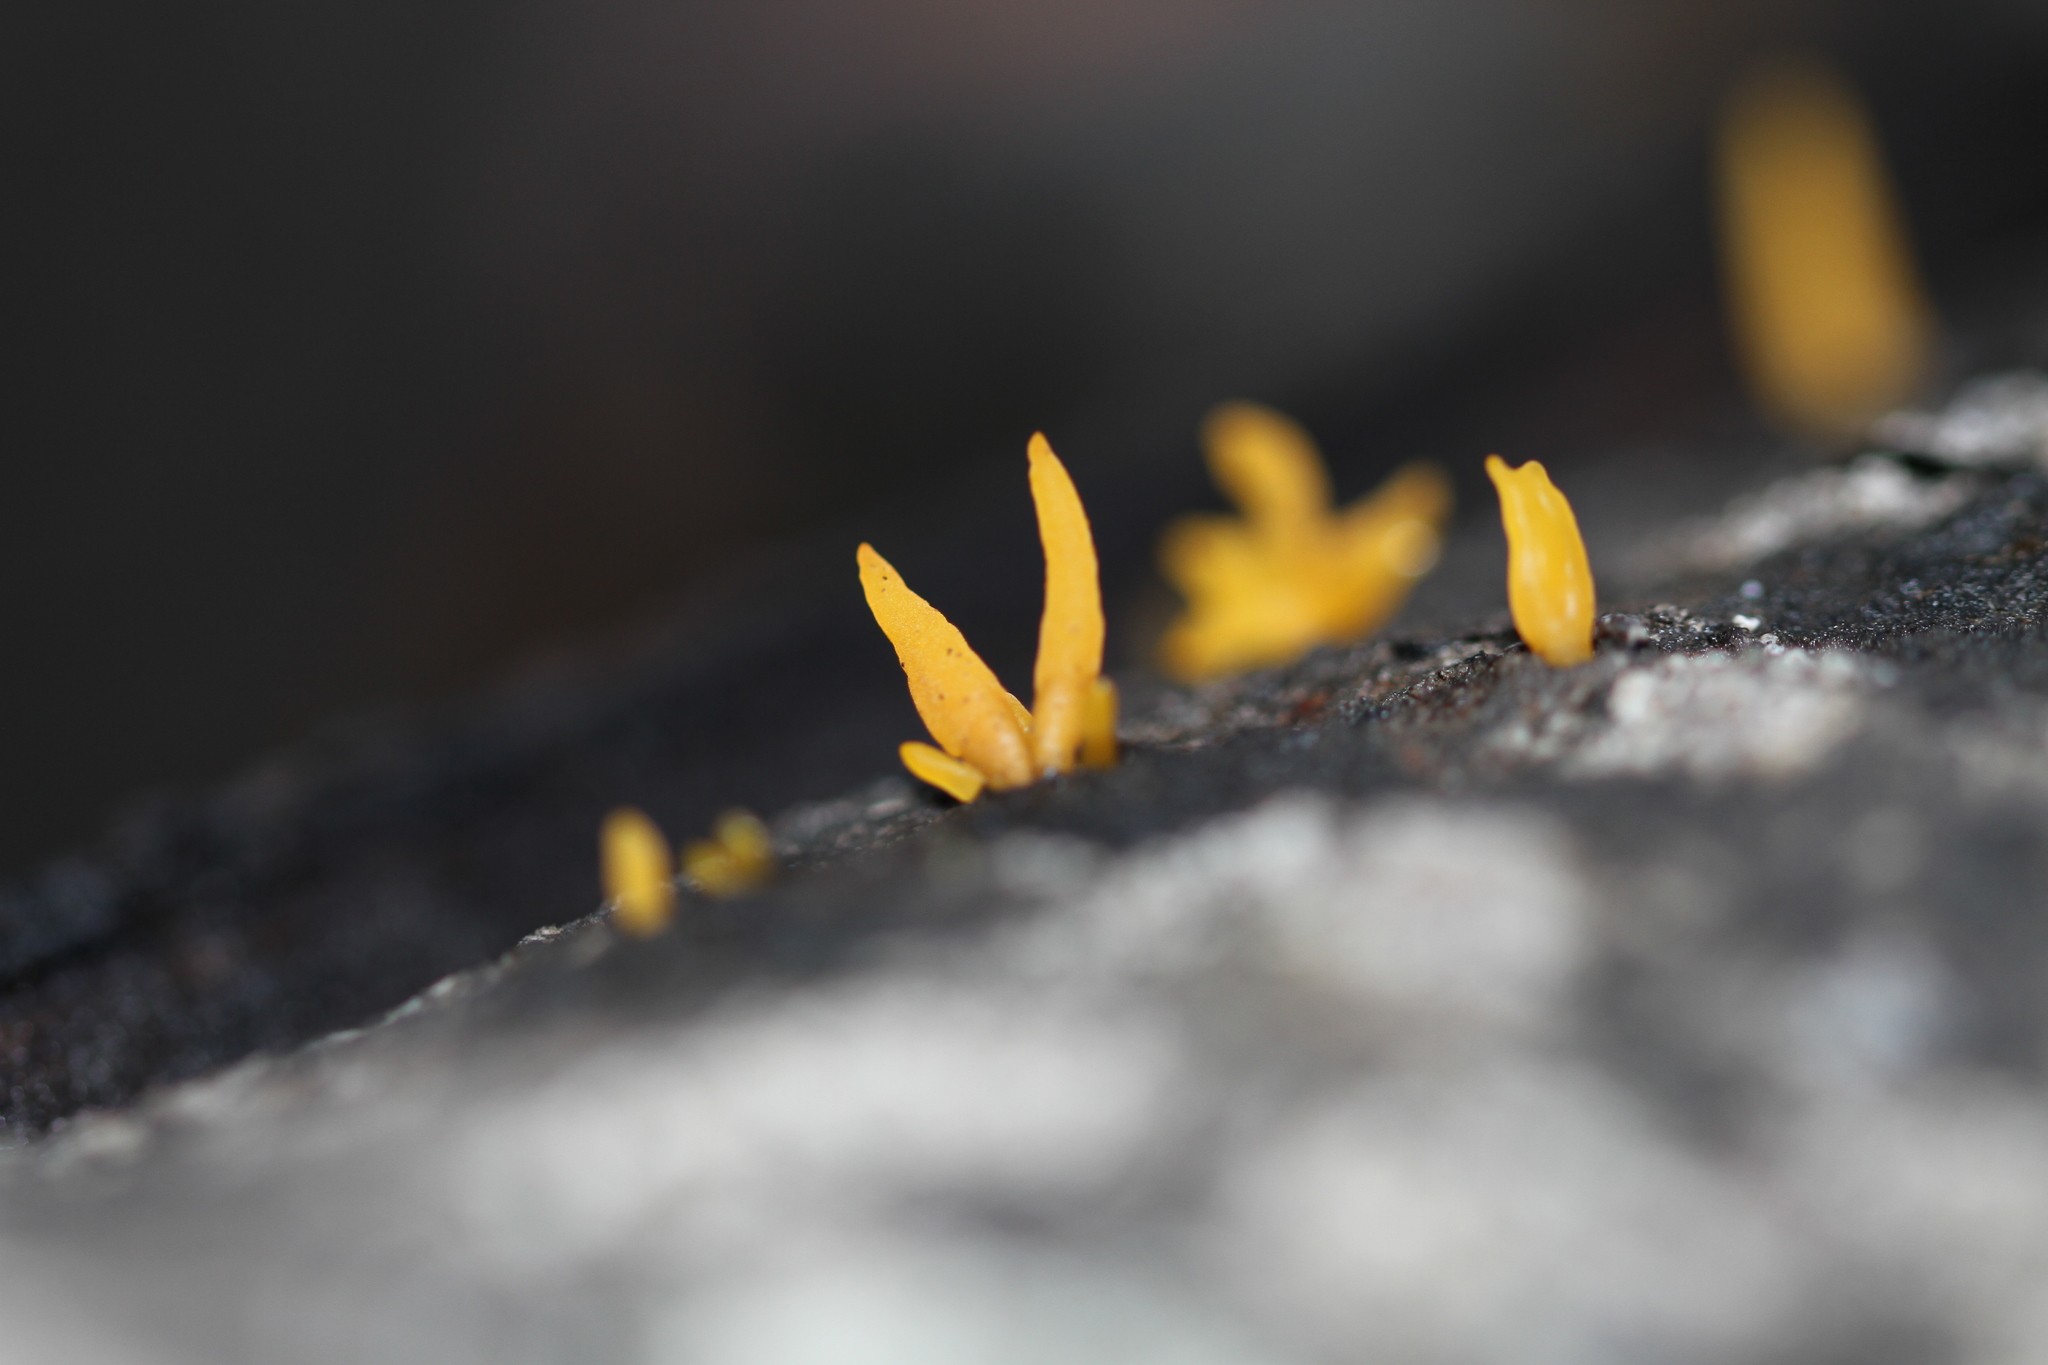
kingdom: Fungi
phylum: Basidiomycota
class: Dacrymycetes
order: Dacrymycetales
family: Dacrymycetaceae
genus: Calocera
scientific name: Calocera cornea
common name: Small stagshorn
